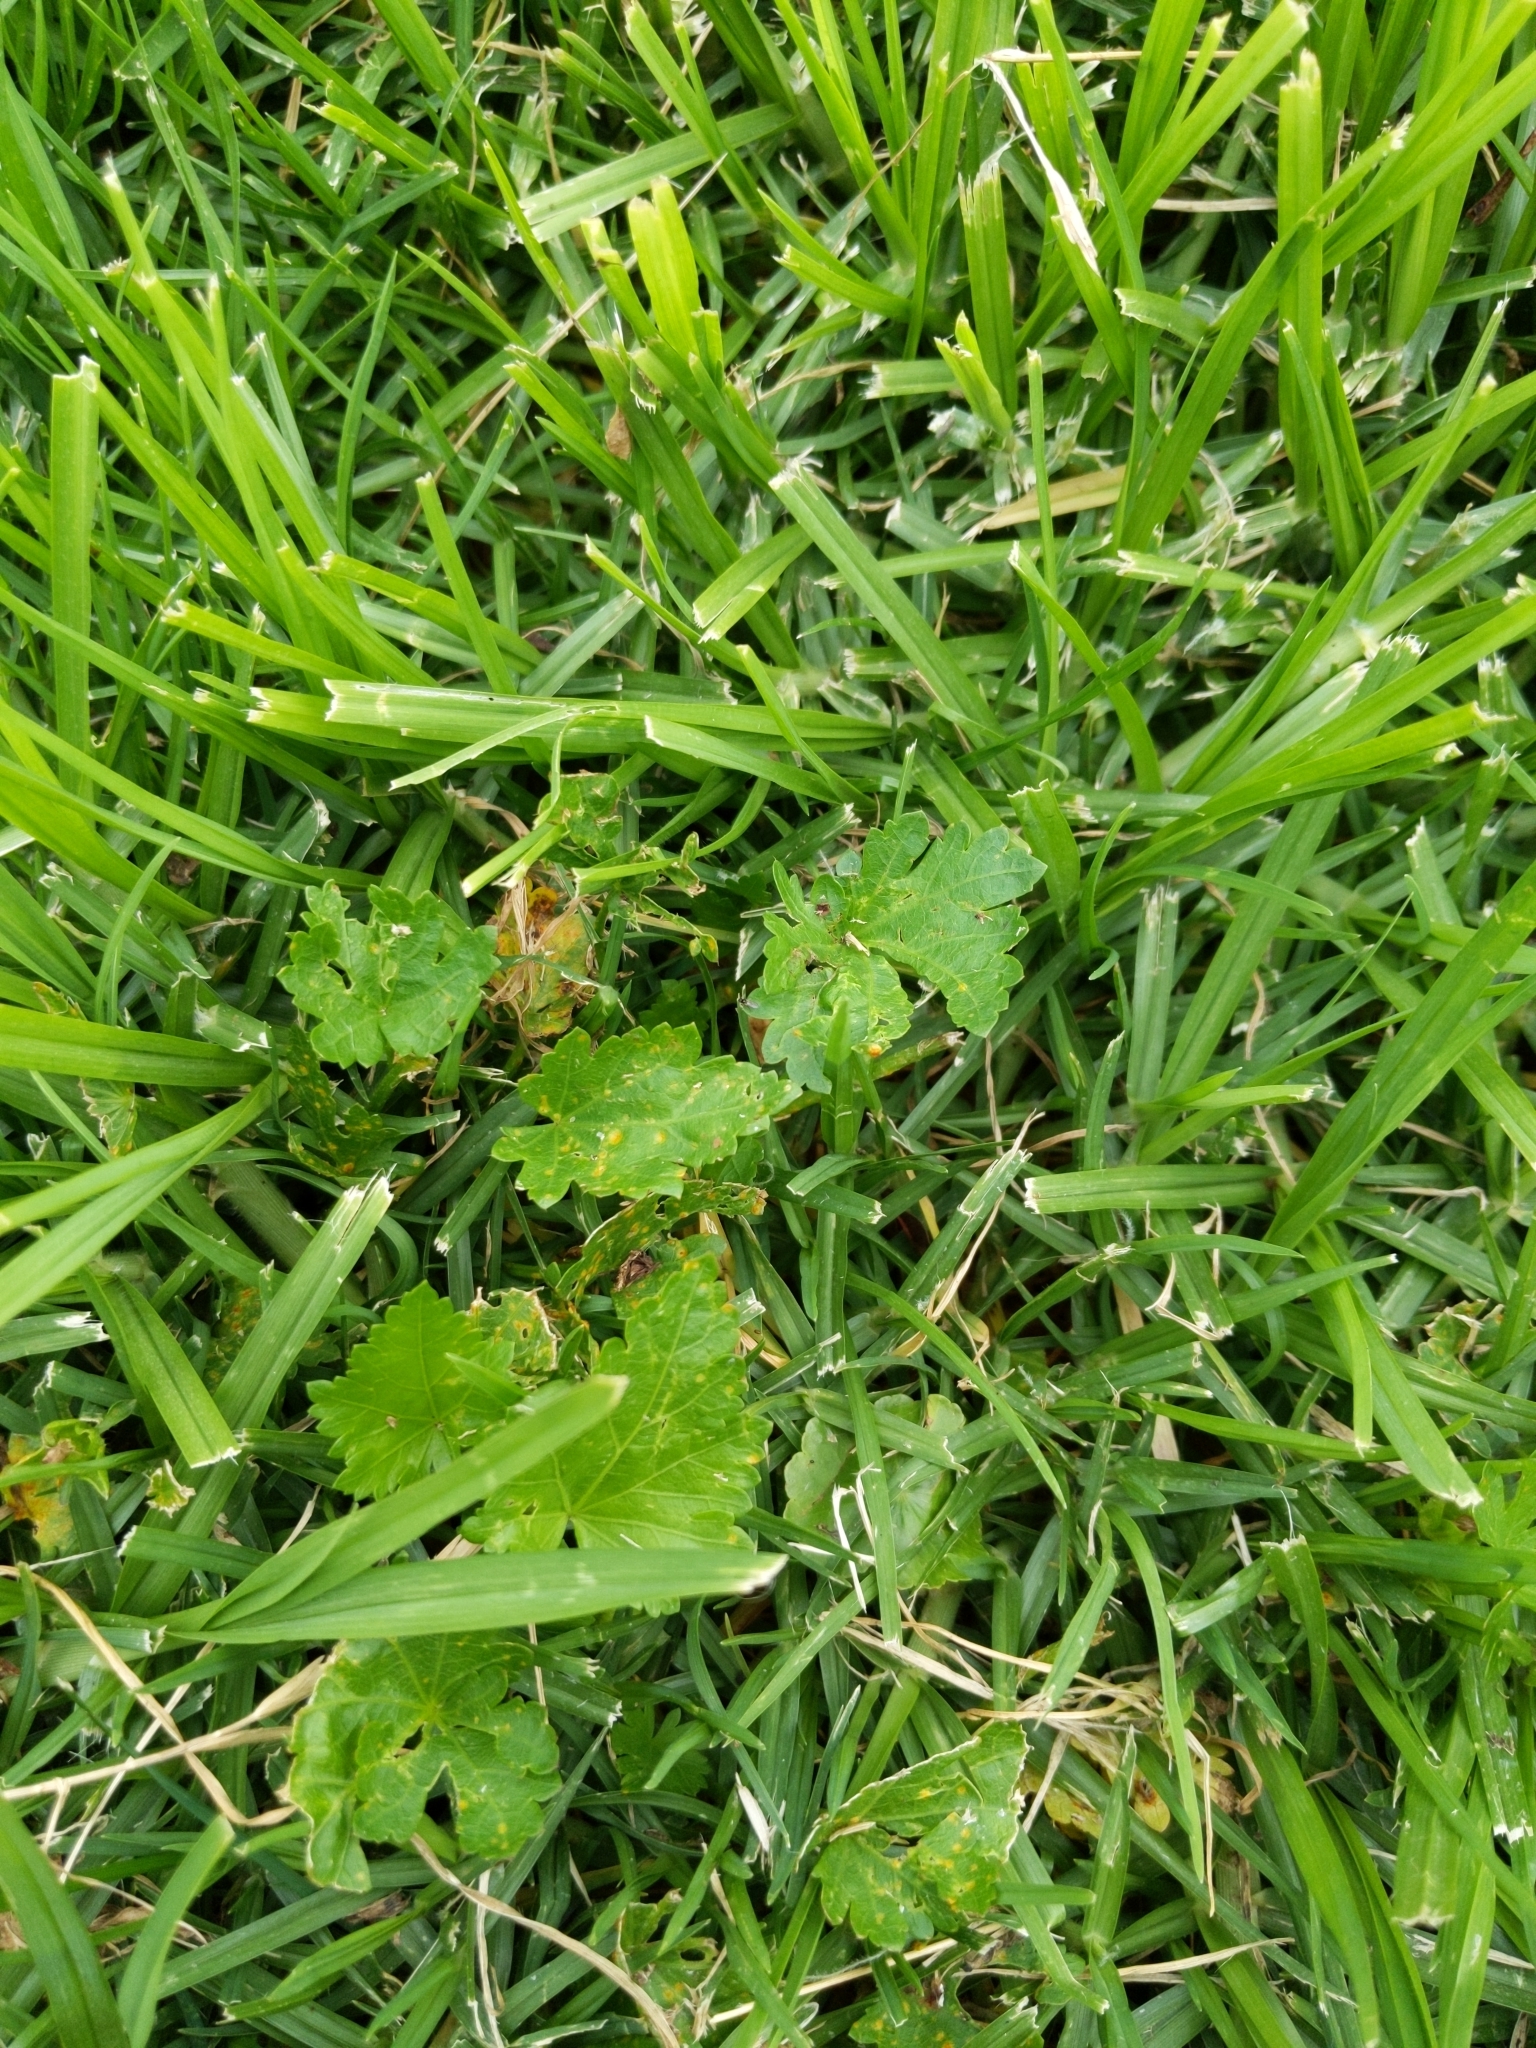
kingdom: Plantae
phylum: Tracheophyta
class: Magnoliopsida
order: Malvales
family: Malvaceae
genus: Modiola
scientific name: Modiola caroliniana
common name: Carolina bristlemallow
